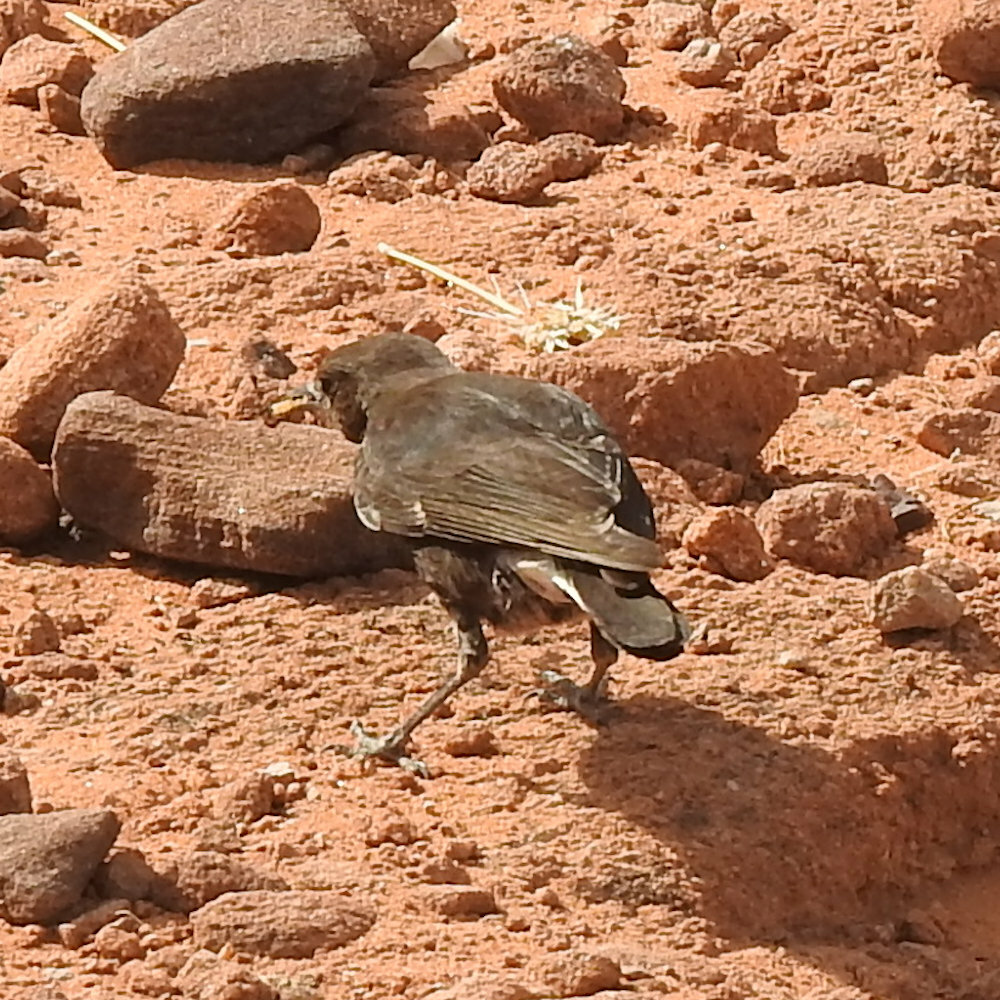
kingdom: Animalia
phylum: Chordata
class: Aves
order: Passeriformes
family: Muscicapidae
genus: Oenanthe
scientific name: Oenanthe monticola
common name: Mountain wheatear
